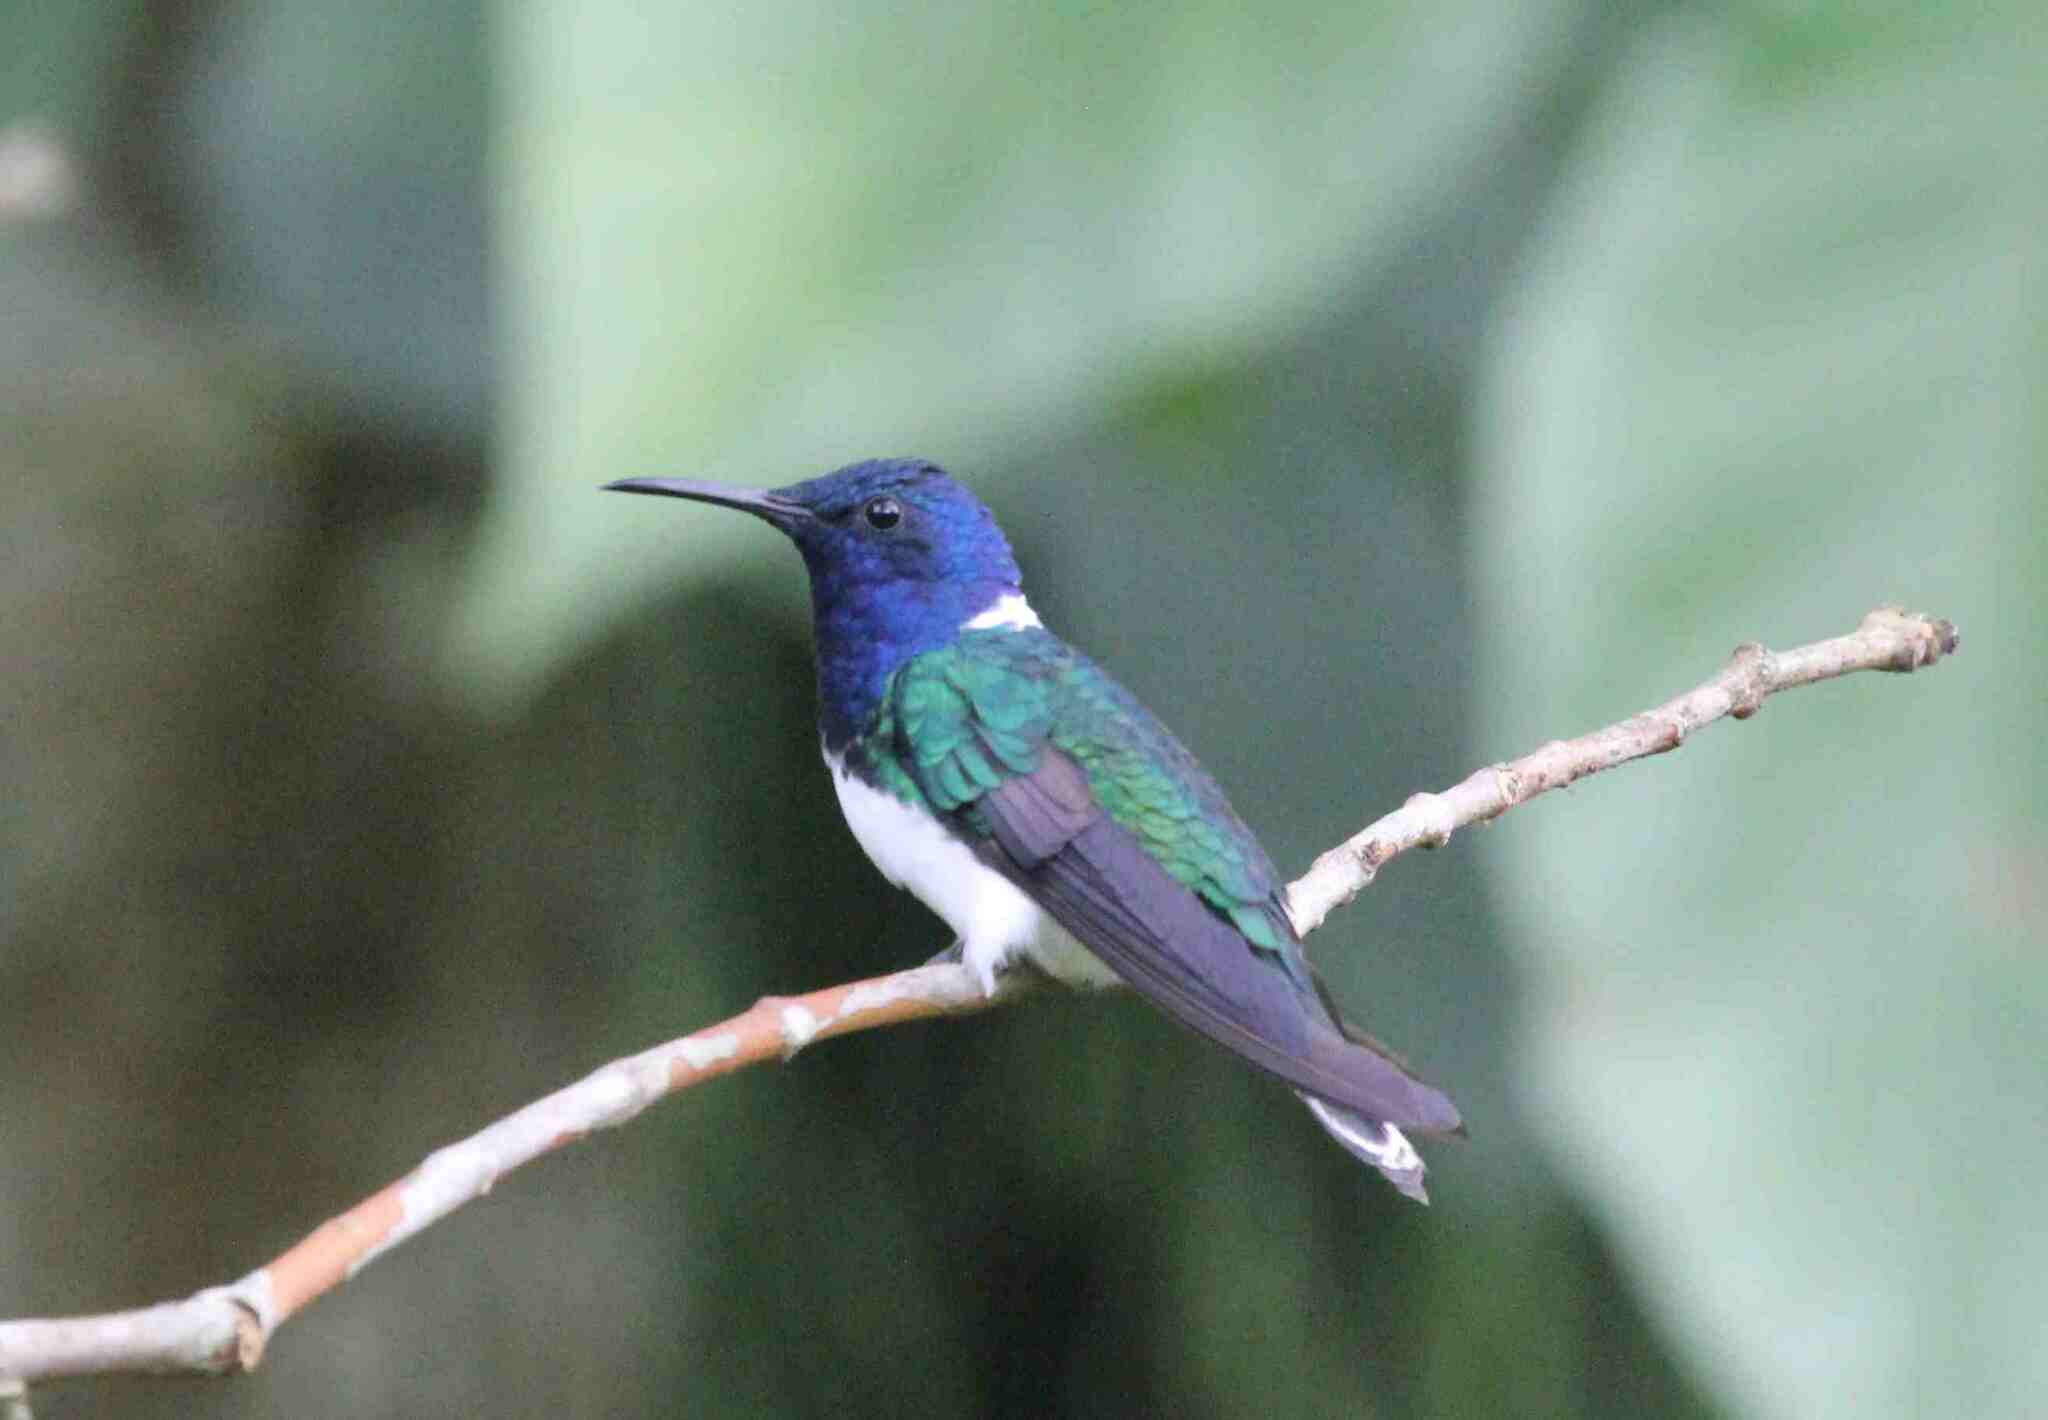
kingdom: Animalia
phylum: Chordata
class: Aves
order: Apodiformes
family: Trochilidae
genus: Florisuga
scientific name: Florisuga mellivora
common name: White-necked jacobin
